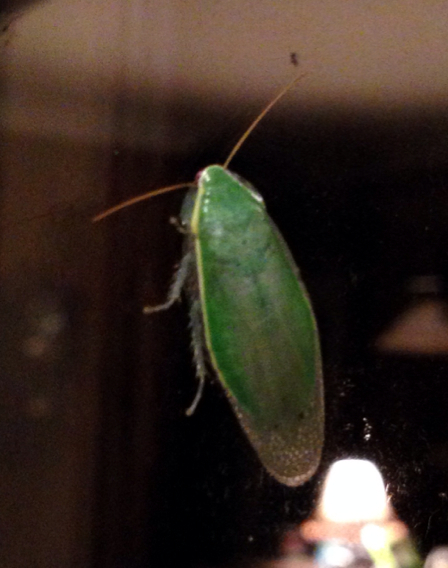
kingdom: Animalia
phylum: Arthropoda
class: Insecta
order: Blattodea
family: Blaberidae
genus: Panchlora
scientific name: Panchlora nivea
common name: Cuban cockroach
